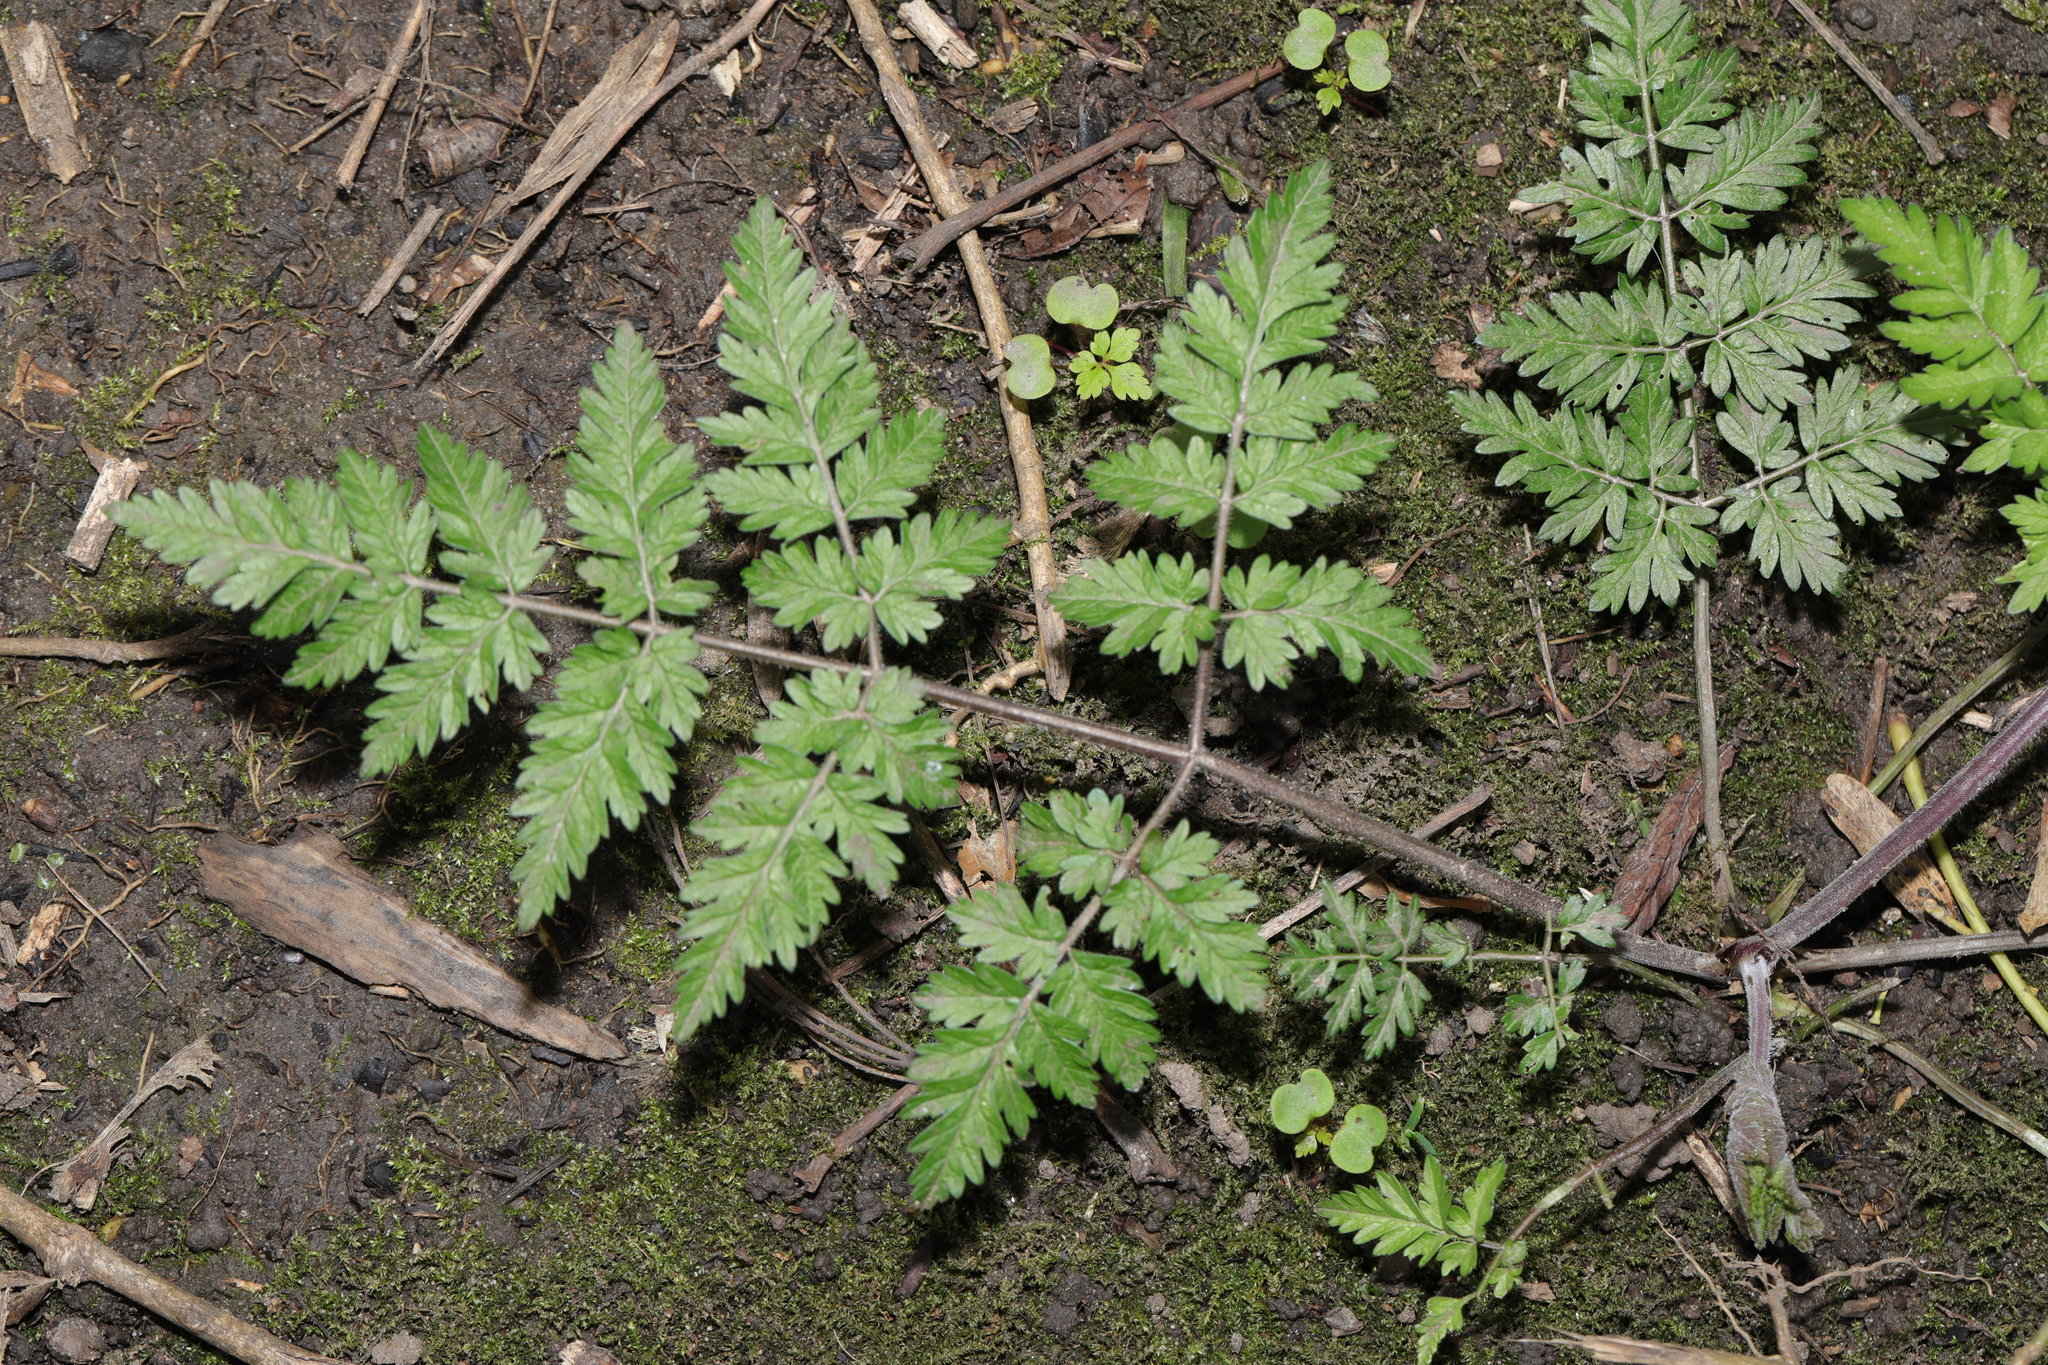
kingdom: Plantae
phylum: Tracheophyta
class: Magnoliopsida
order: Apiales
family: Apiaceae
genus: Anthriscus
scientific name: Anthriscus sylvestris
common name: Cow parsley
